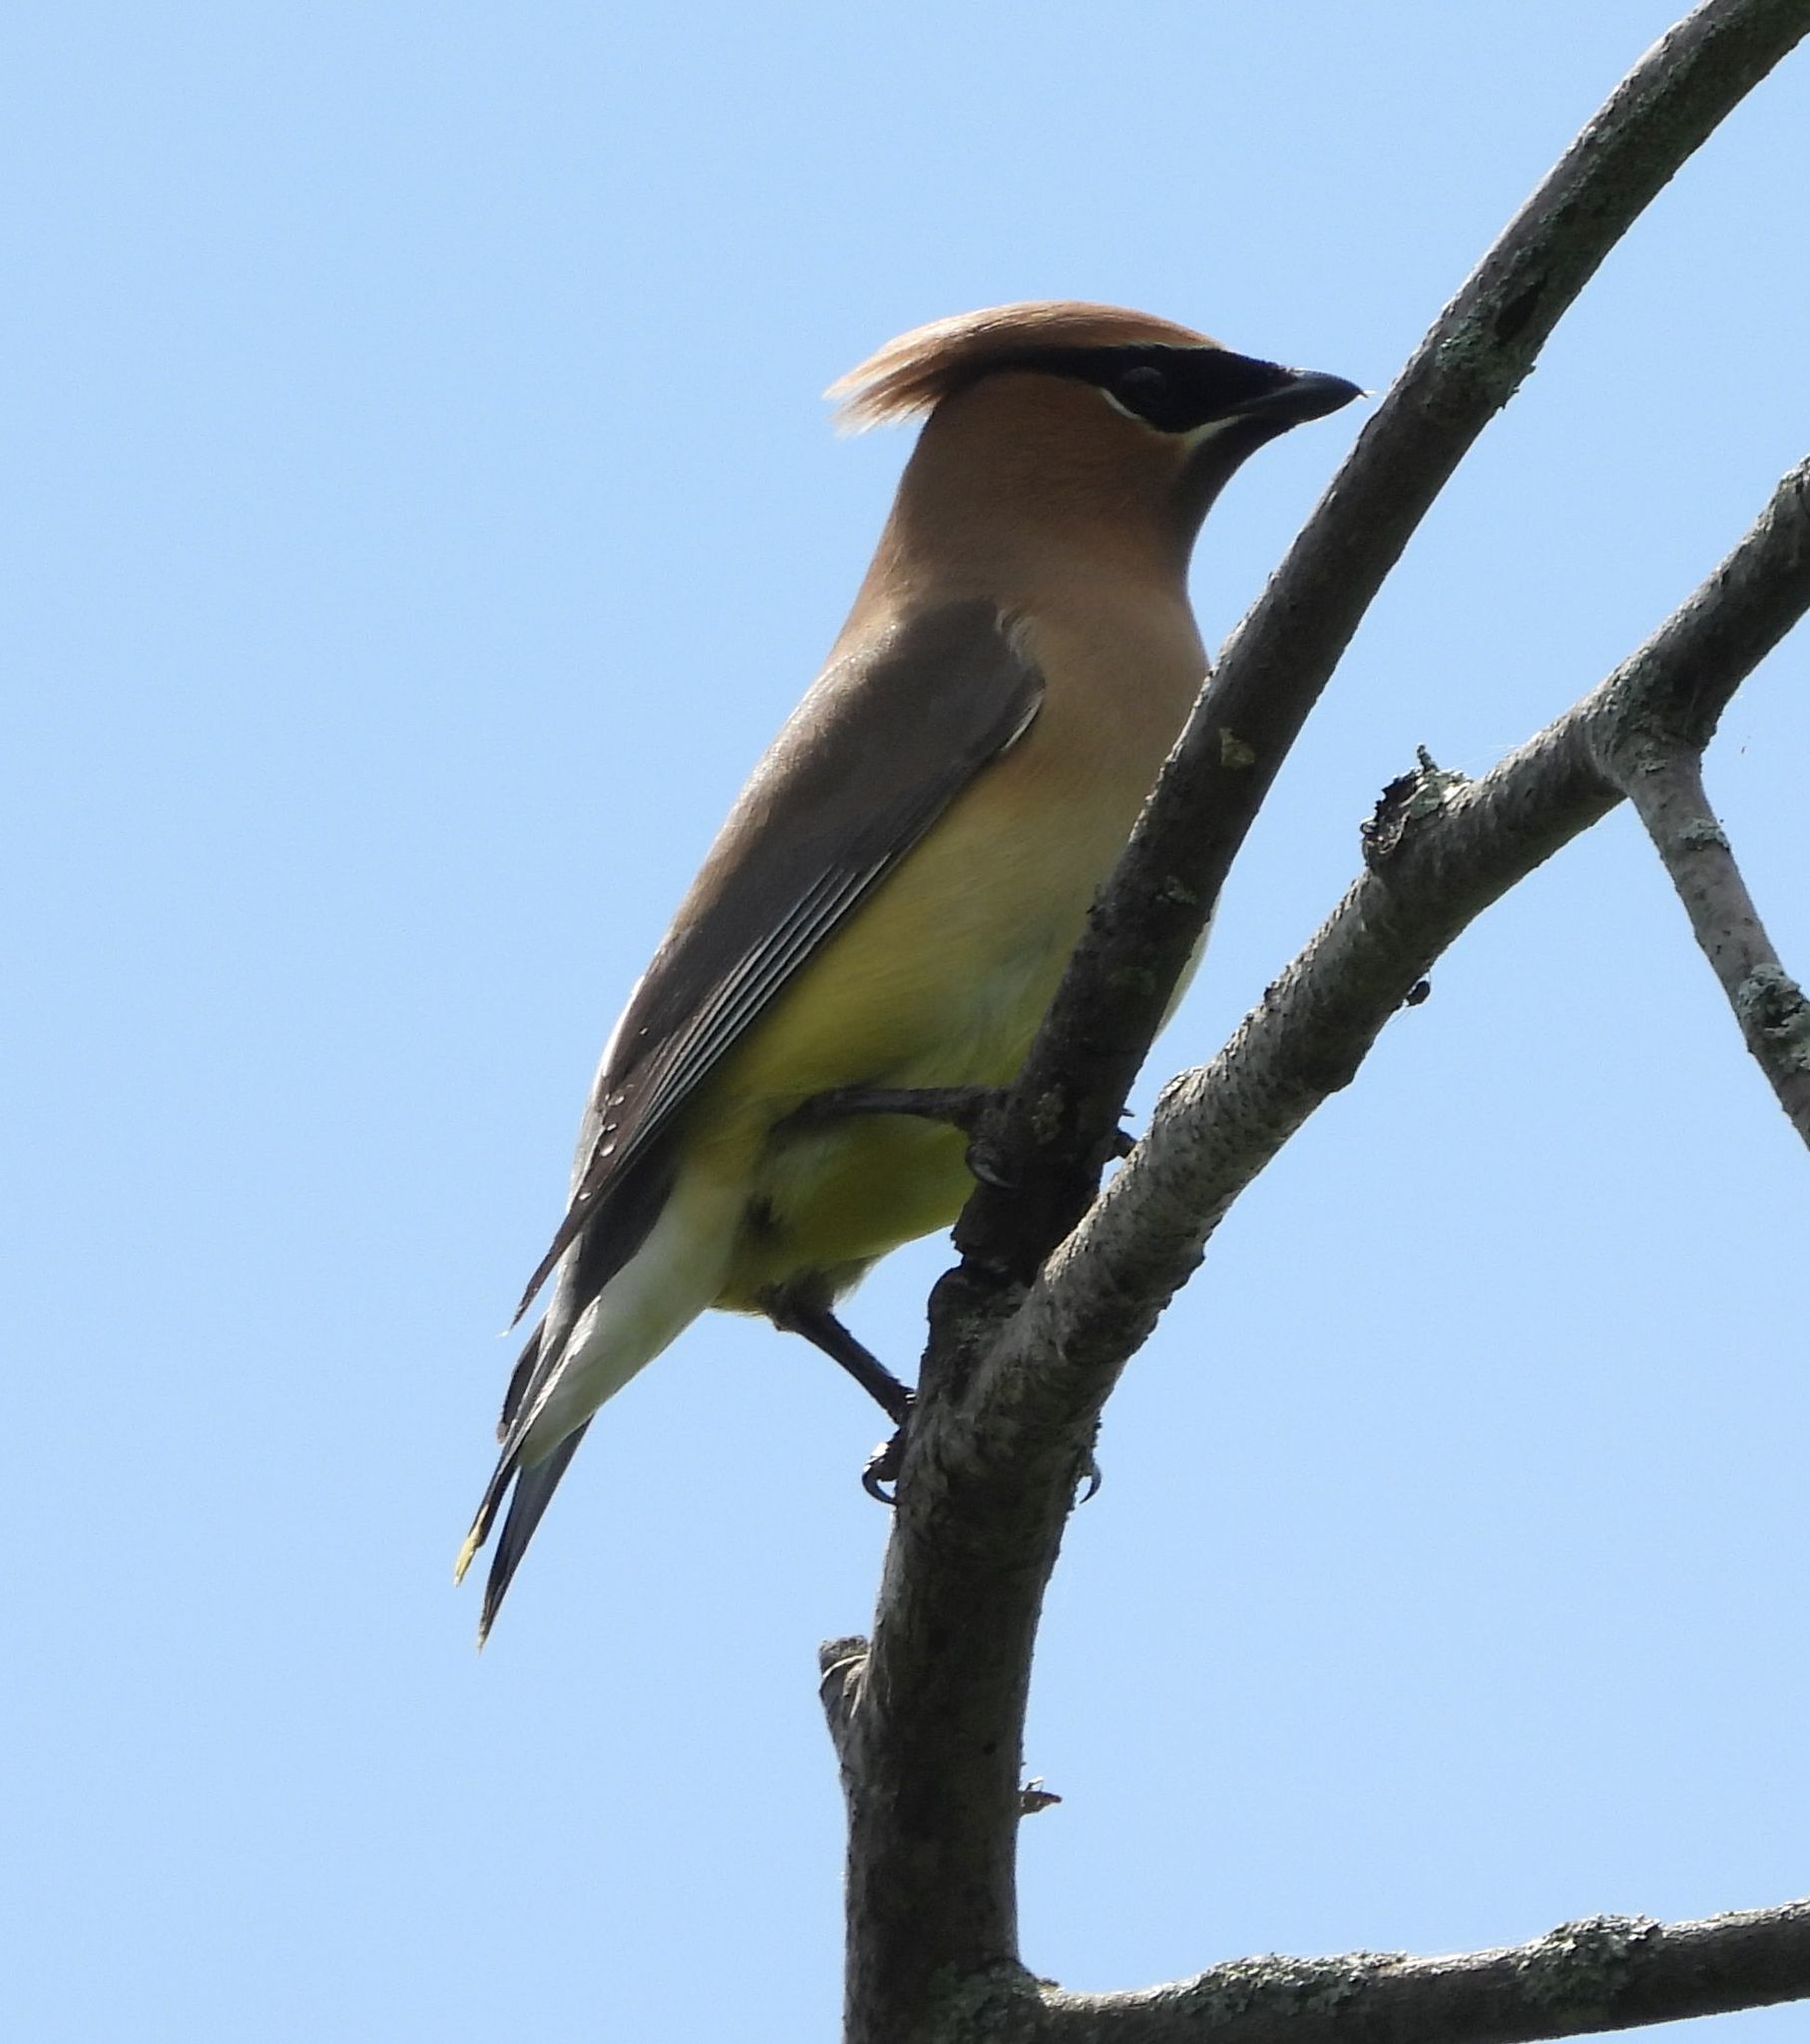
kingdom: Animalia
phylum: Chordata
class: Aves
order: Passeriformes
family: Bombycillidae
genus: Bombycilla
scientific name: Bombycilla cedrorum
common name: Cedar waxwing
